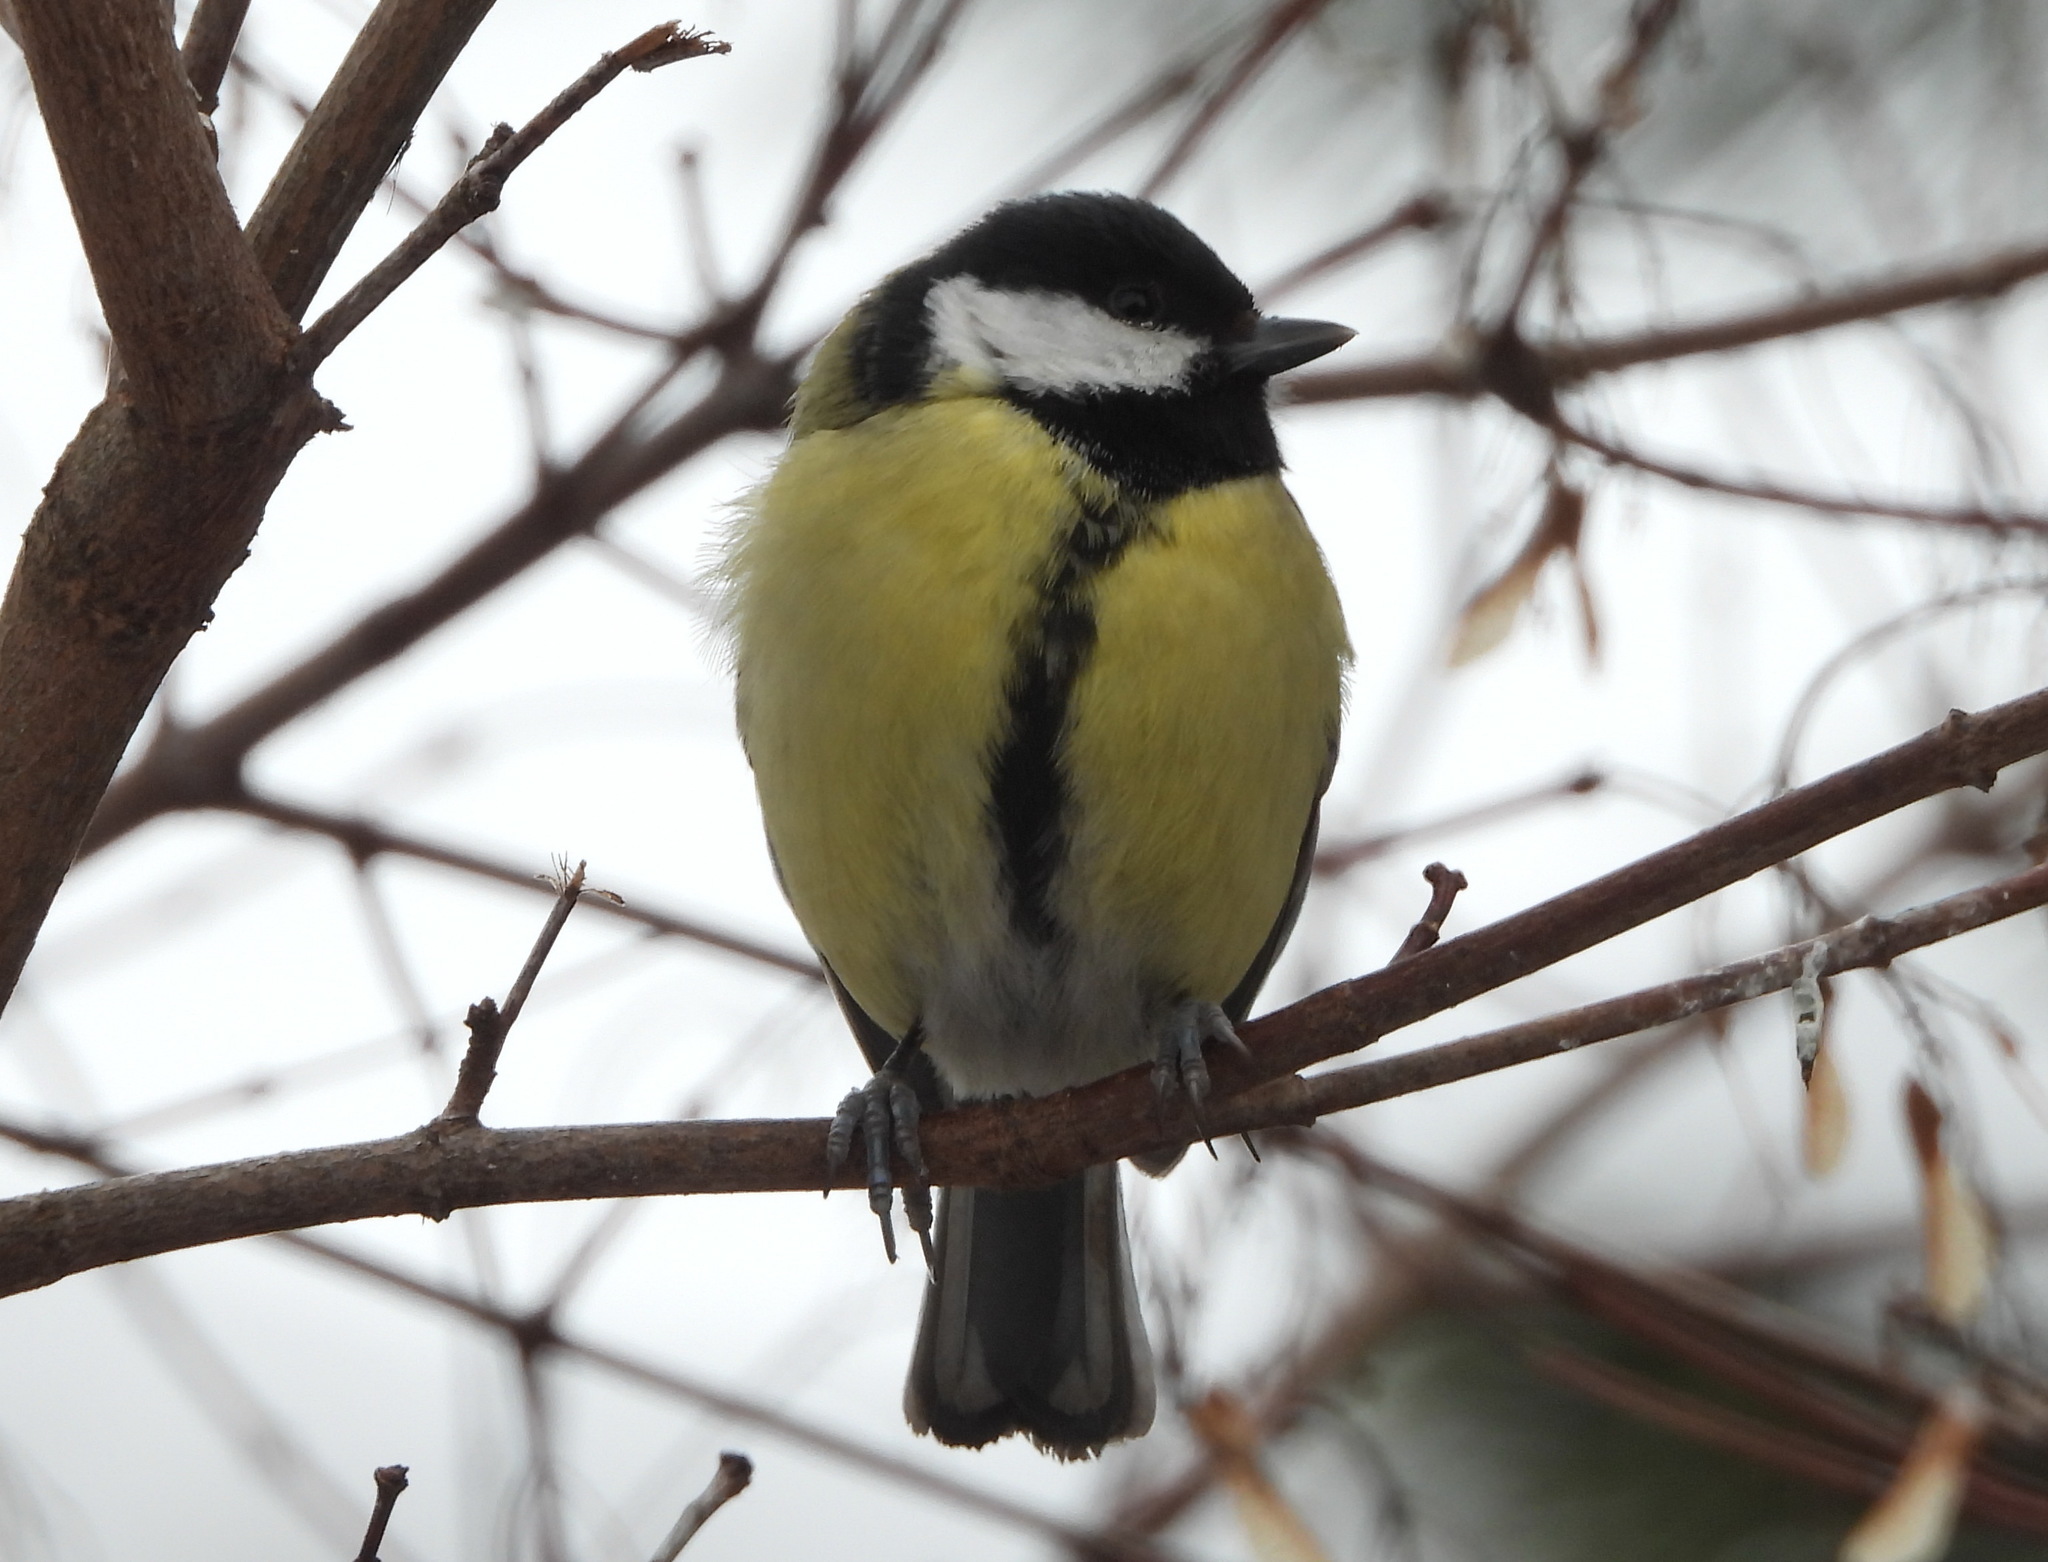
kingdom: Animalia
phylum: Chordata
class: Aves
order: Passeriformes
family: Paridae
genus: Parus
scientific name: Parus major
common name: Great tit
